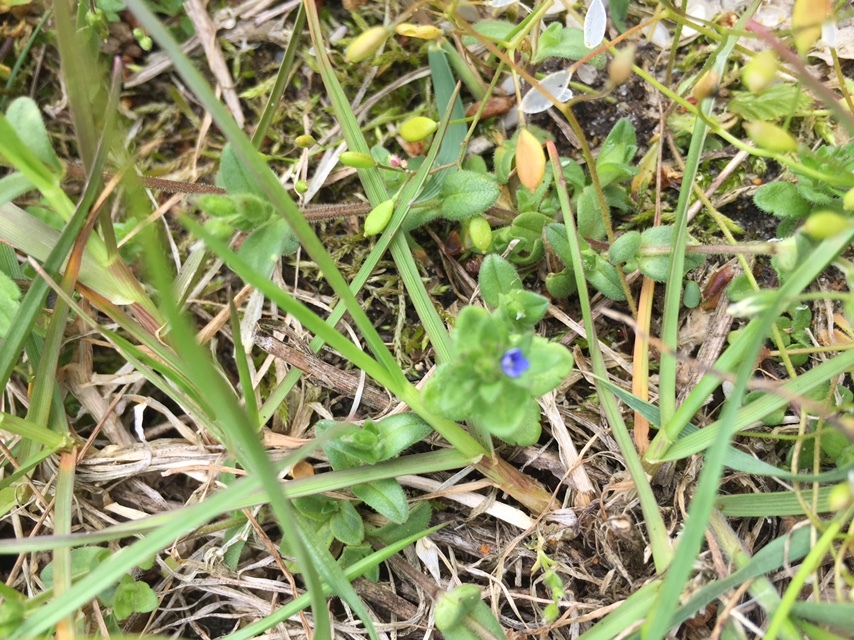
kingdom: Plantae
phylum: Tracheophyta
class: Magnoliopsida
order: Lamiales
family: Plantaginaceae
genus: Veronica
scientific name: Veronica arvensis
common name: Corn speedwell
